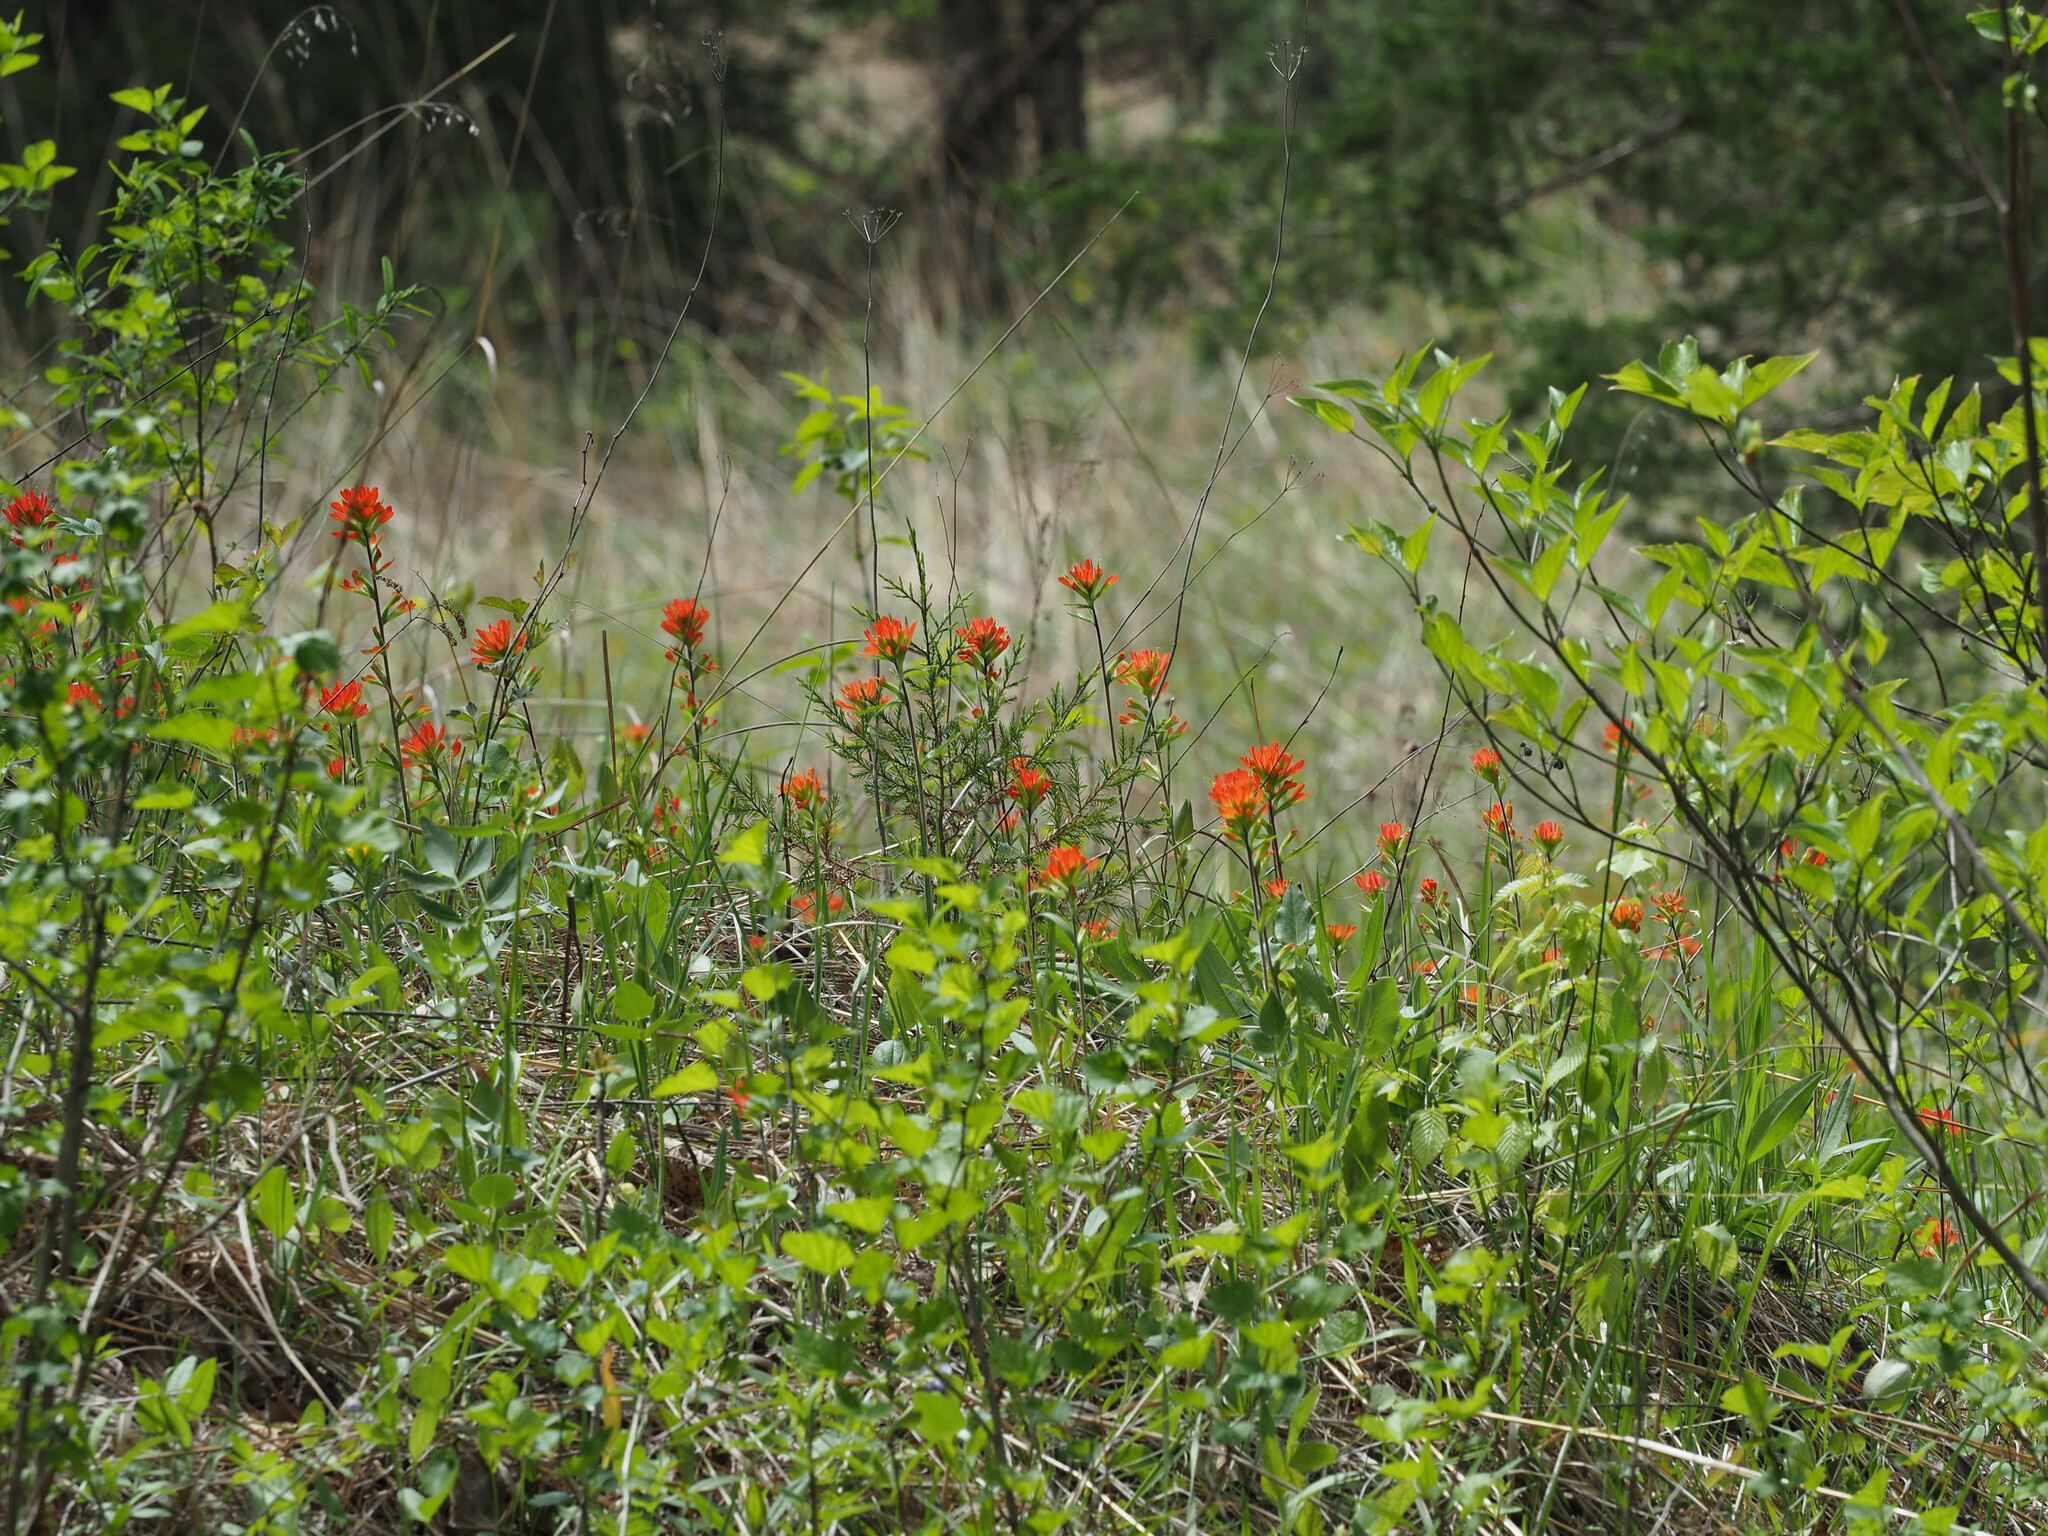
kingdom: Plantae
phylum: Tracheophyta
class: Magnoliopsida
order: Lamiales
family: Orobanchaceae
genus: Castilleja
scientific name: Castilleja coccinea
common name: Scarlet paintbrush
